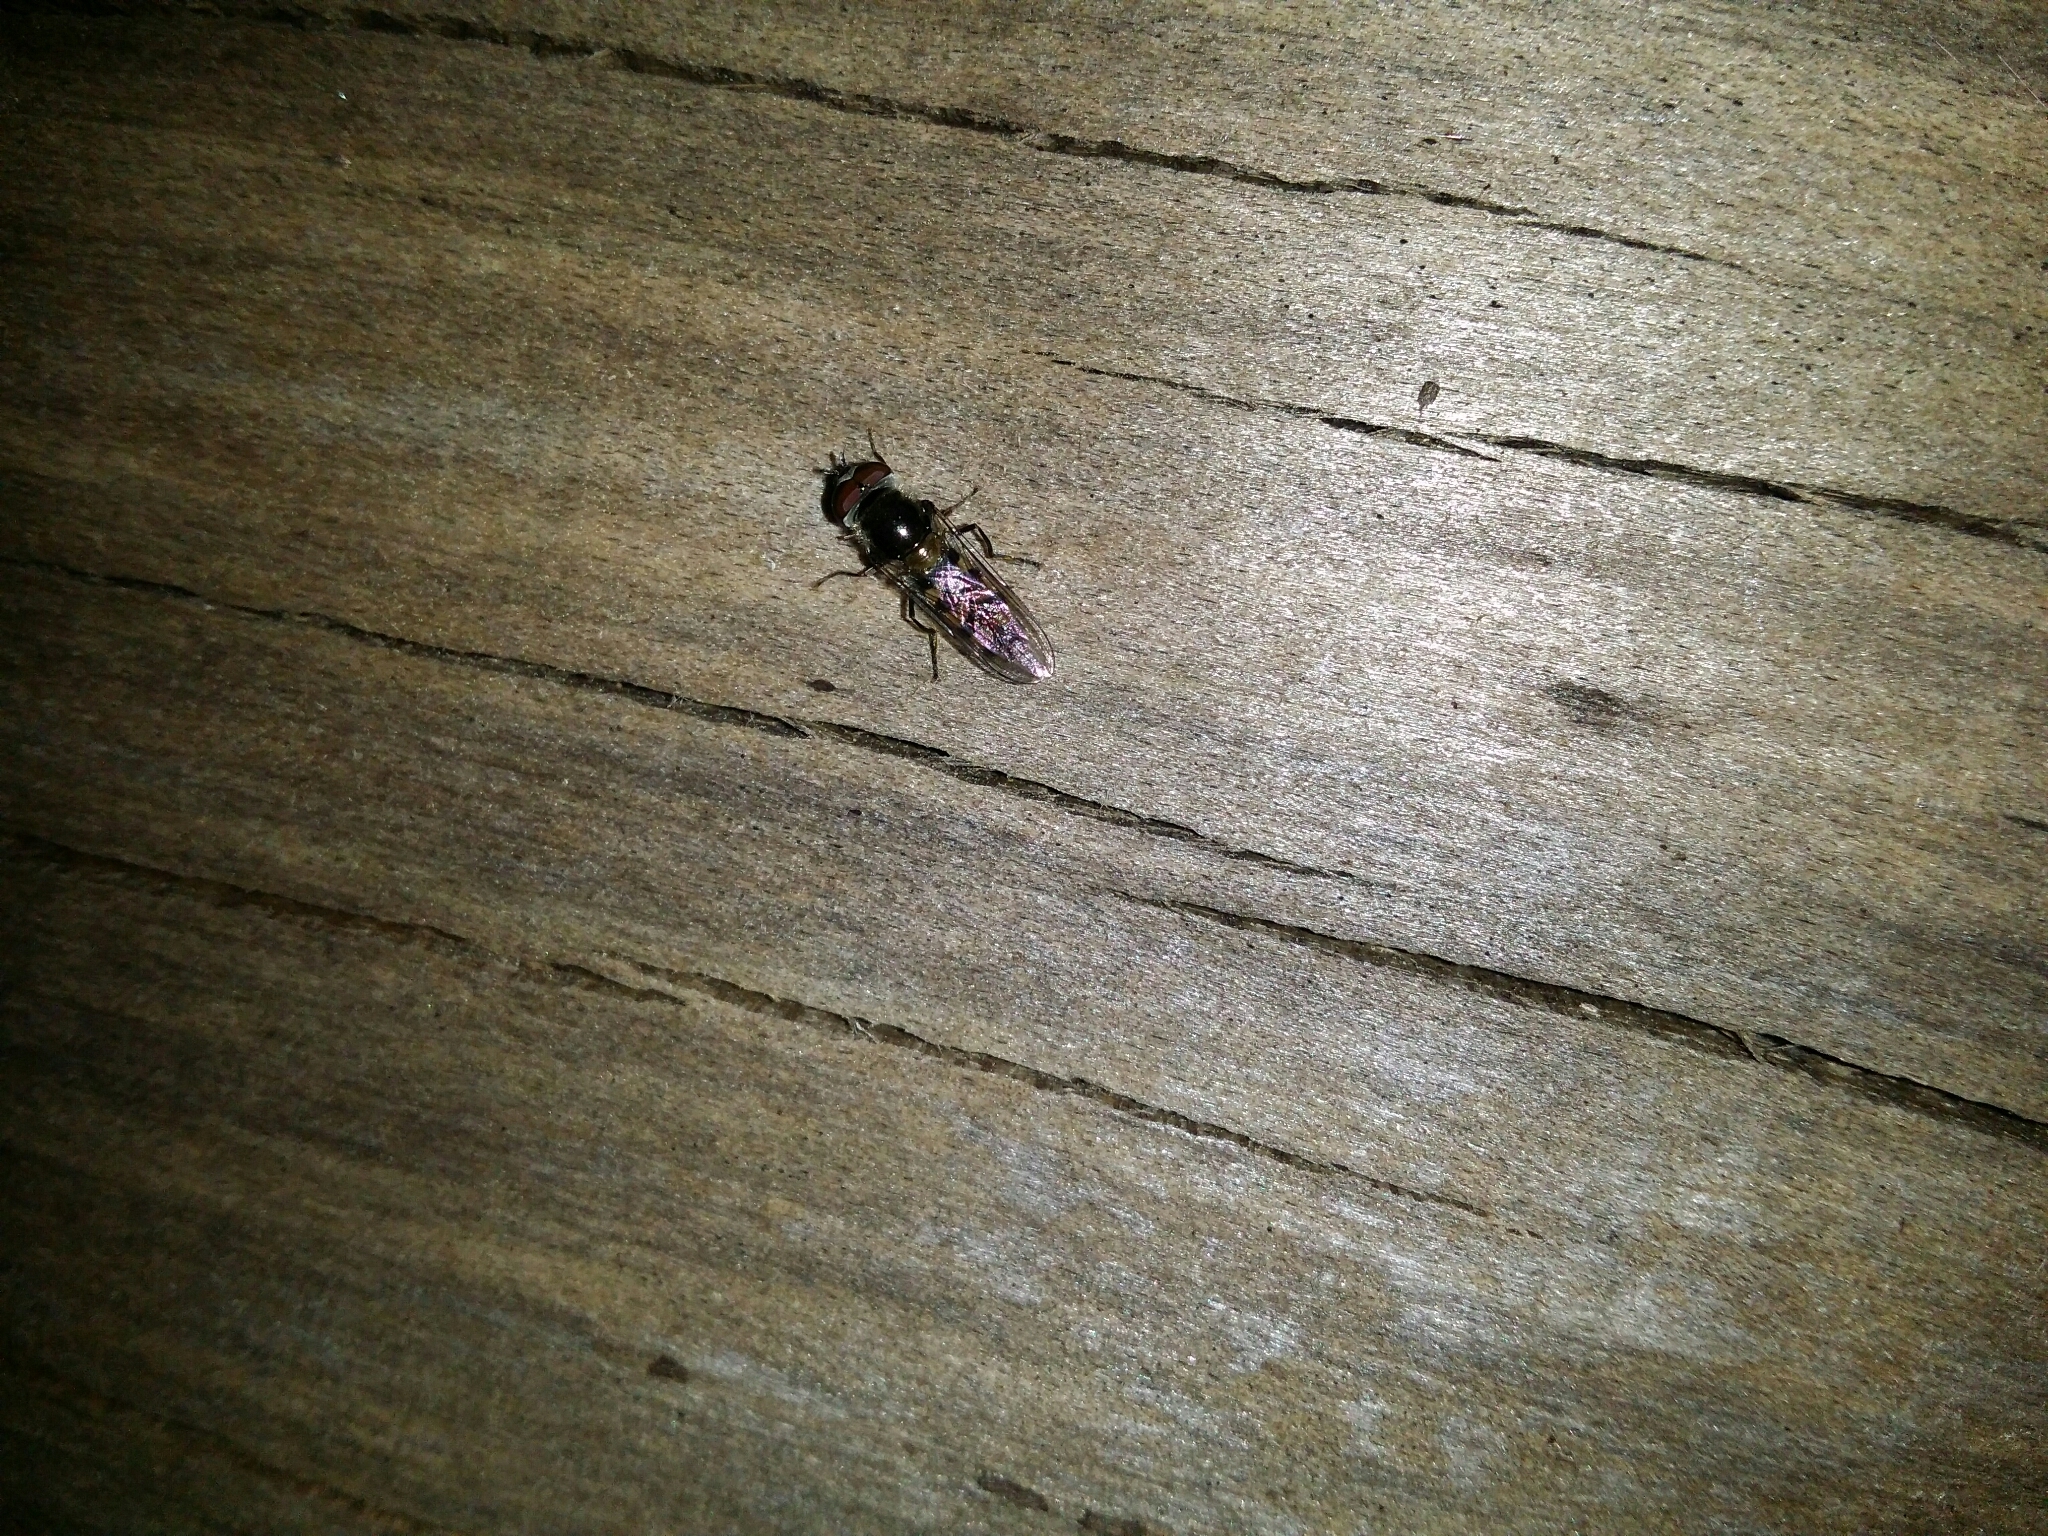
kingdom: Animalia
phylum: Arthropoda
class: Insecta
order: Diptera
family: Syrphidae
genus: Melangyna
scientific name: Melangyna viridiceps
